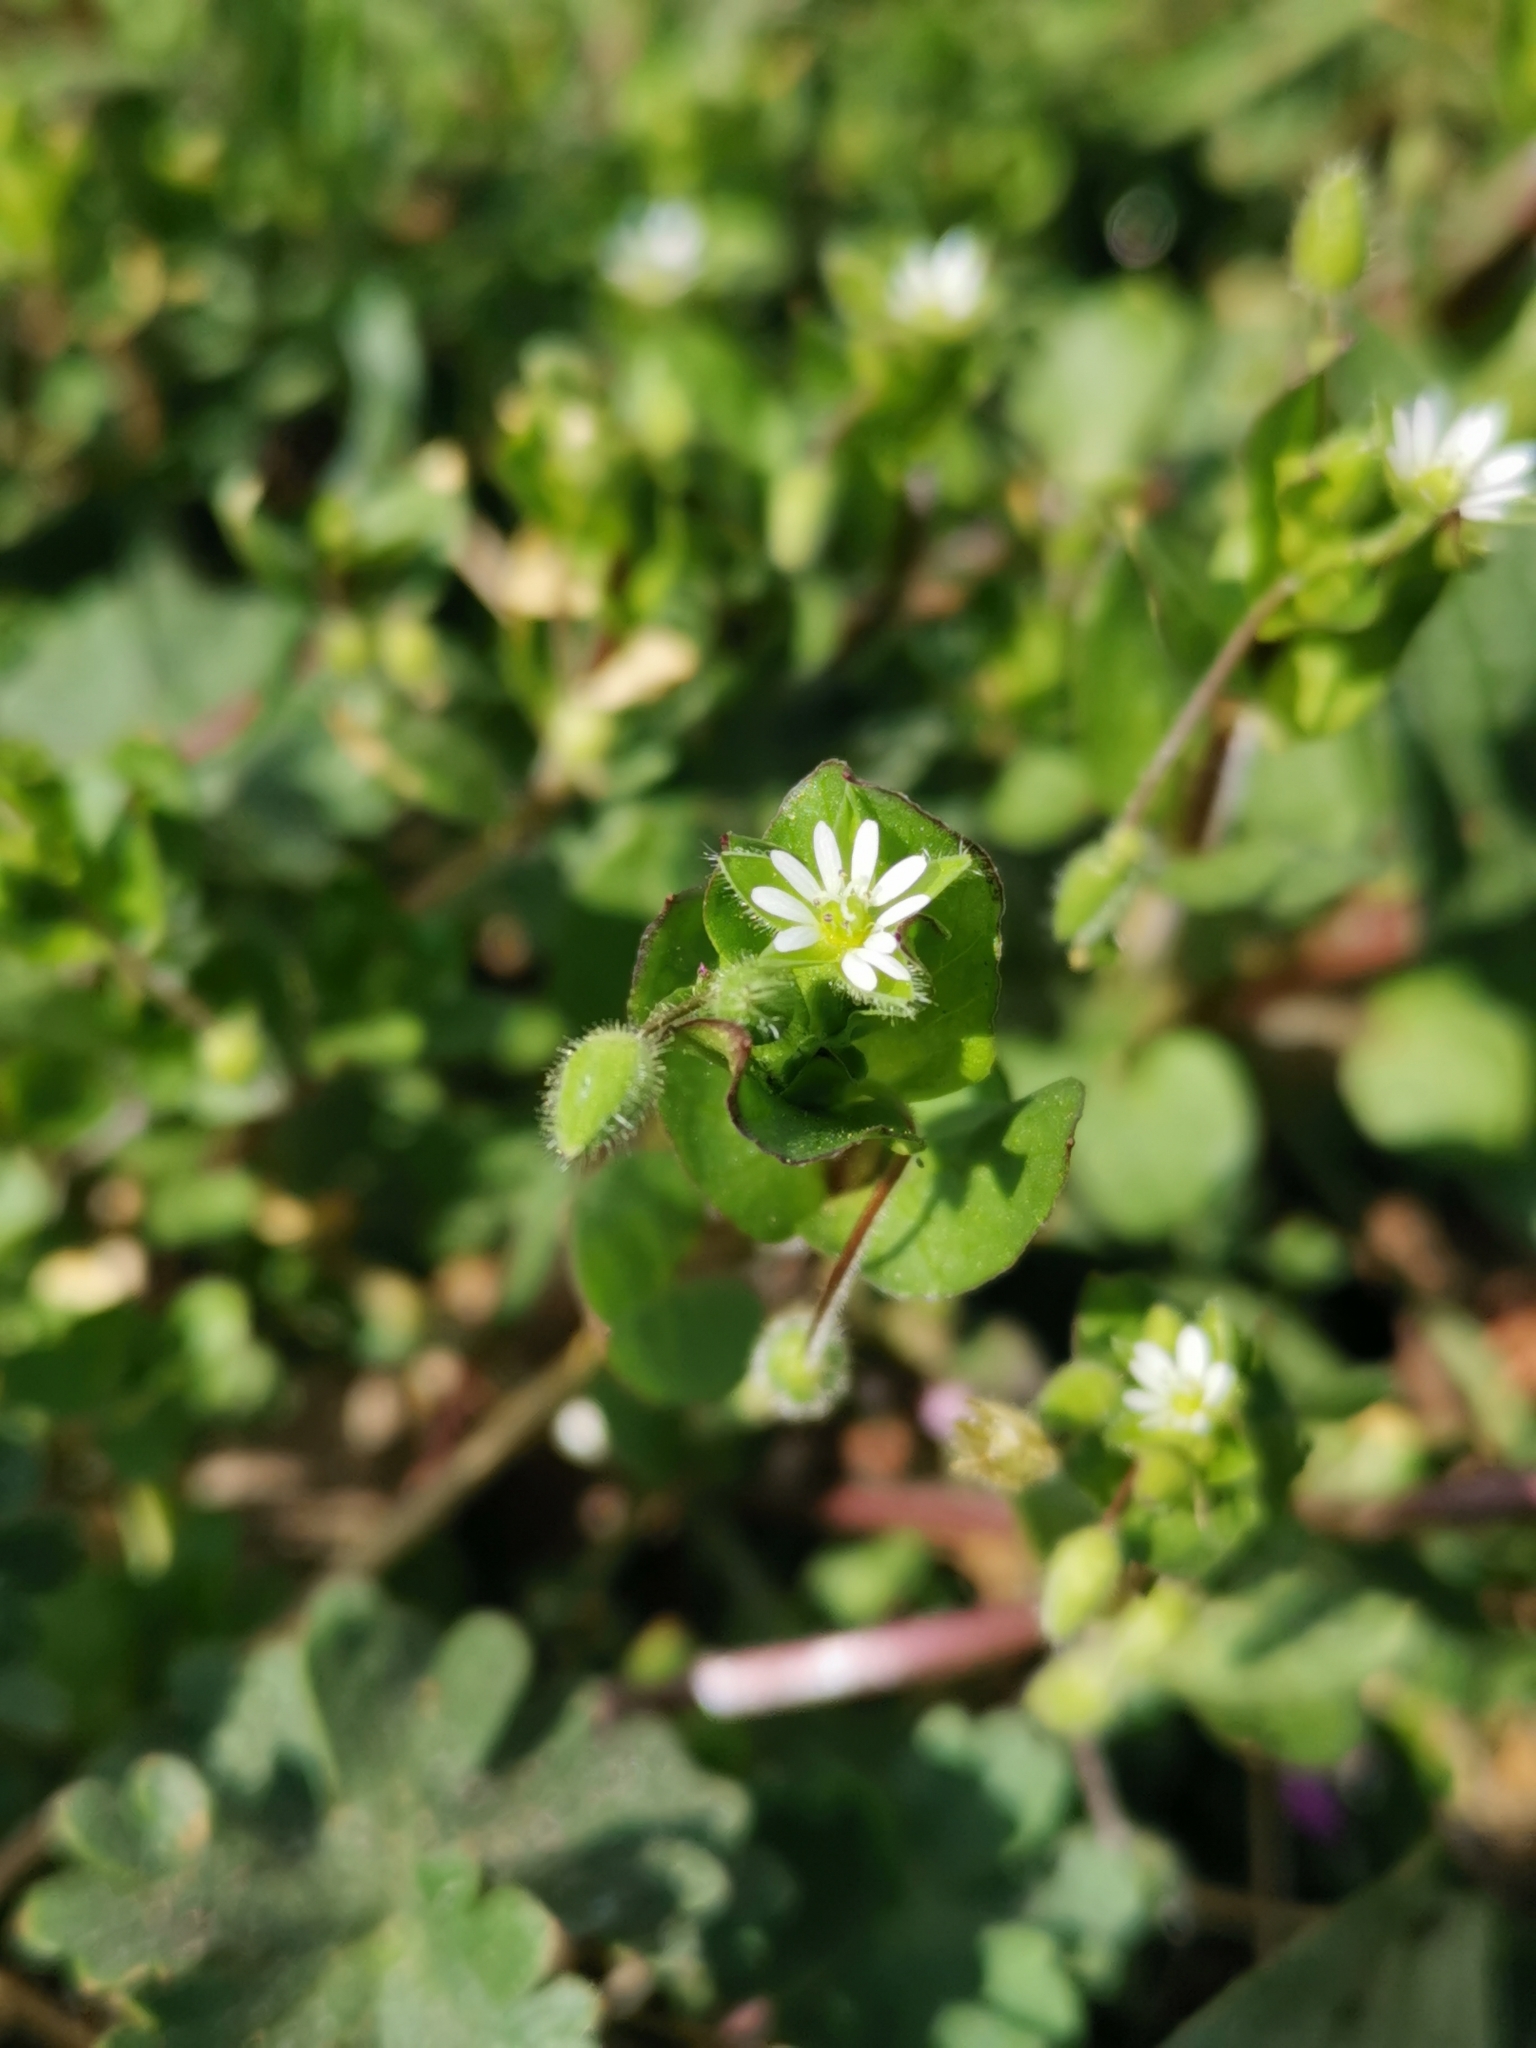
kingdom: Plantae
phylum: Tracheophyta
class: Magnoliopsida
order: Caryophyllales
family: Caryophyllaceae
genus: Stellaria
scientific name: Stellaria media
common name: Common chickweed
